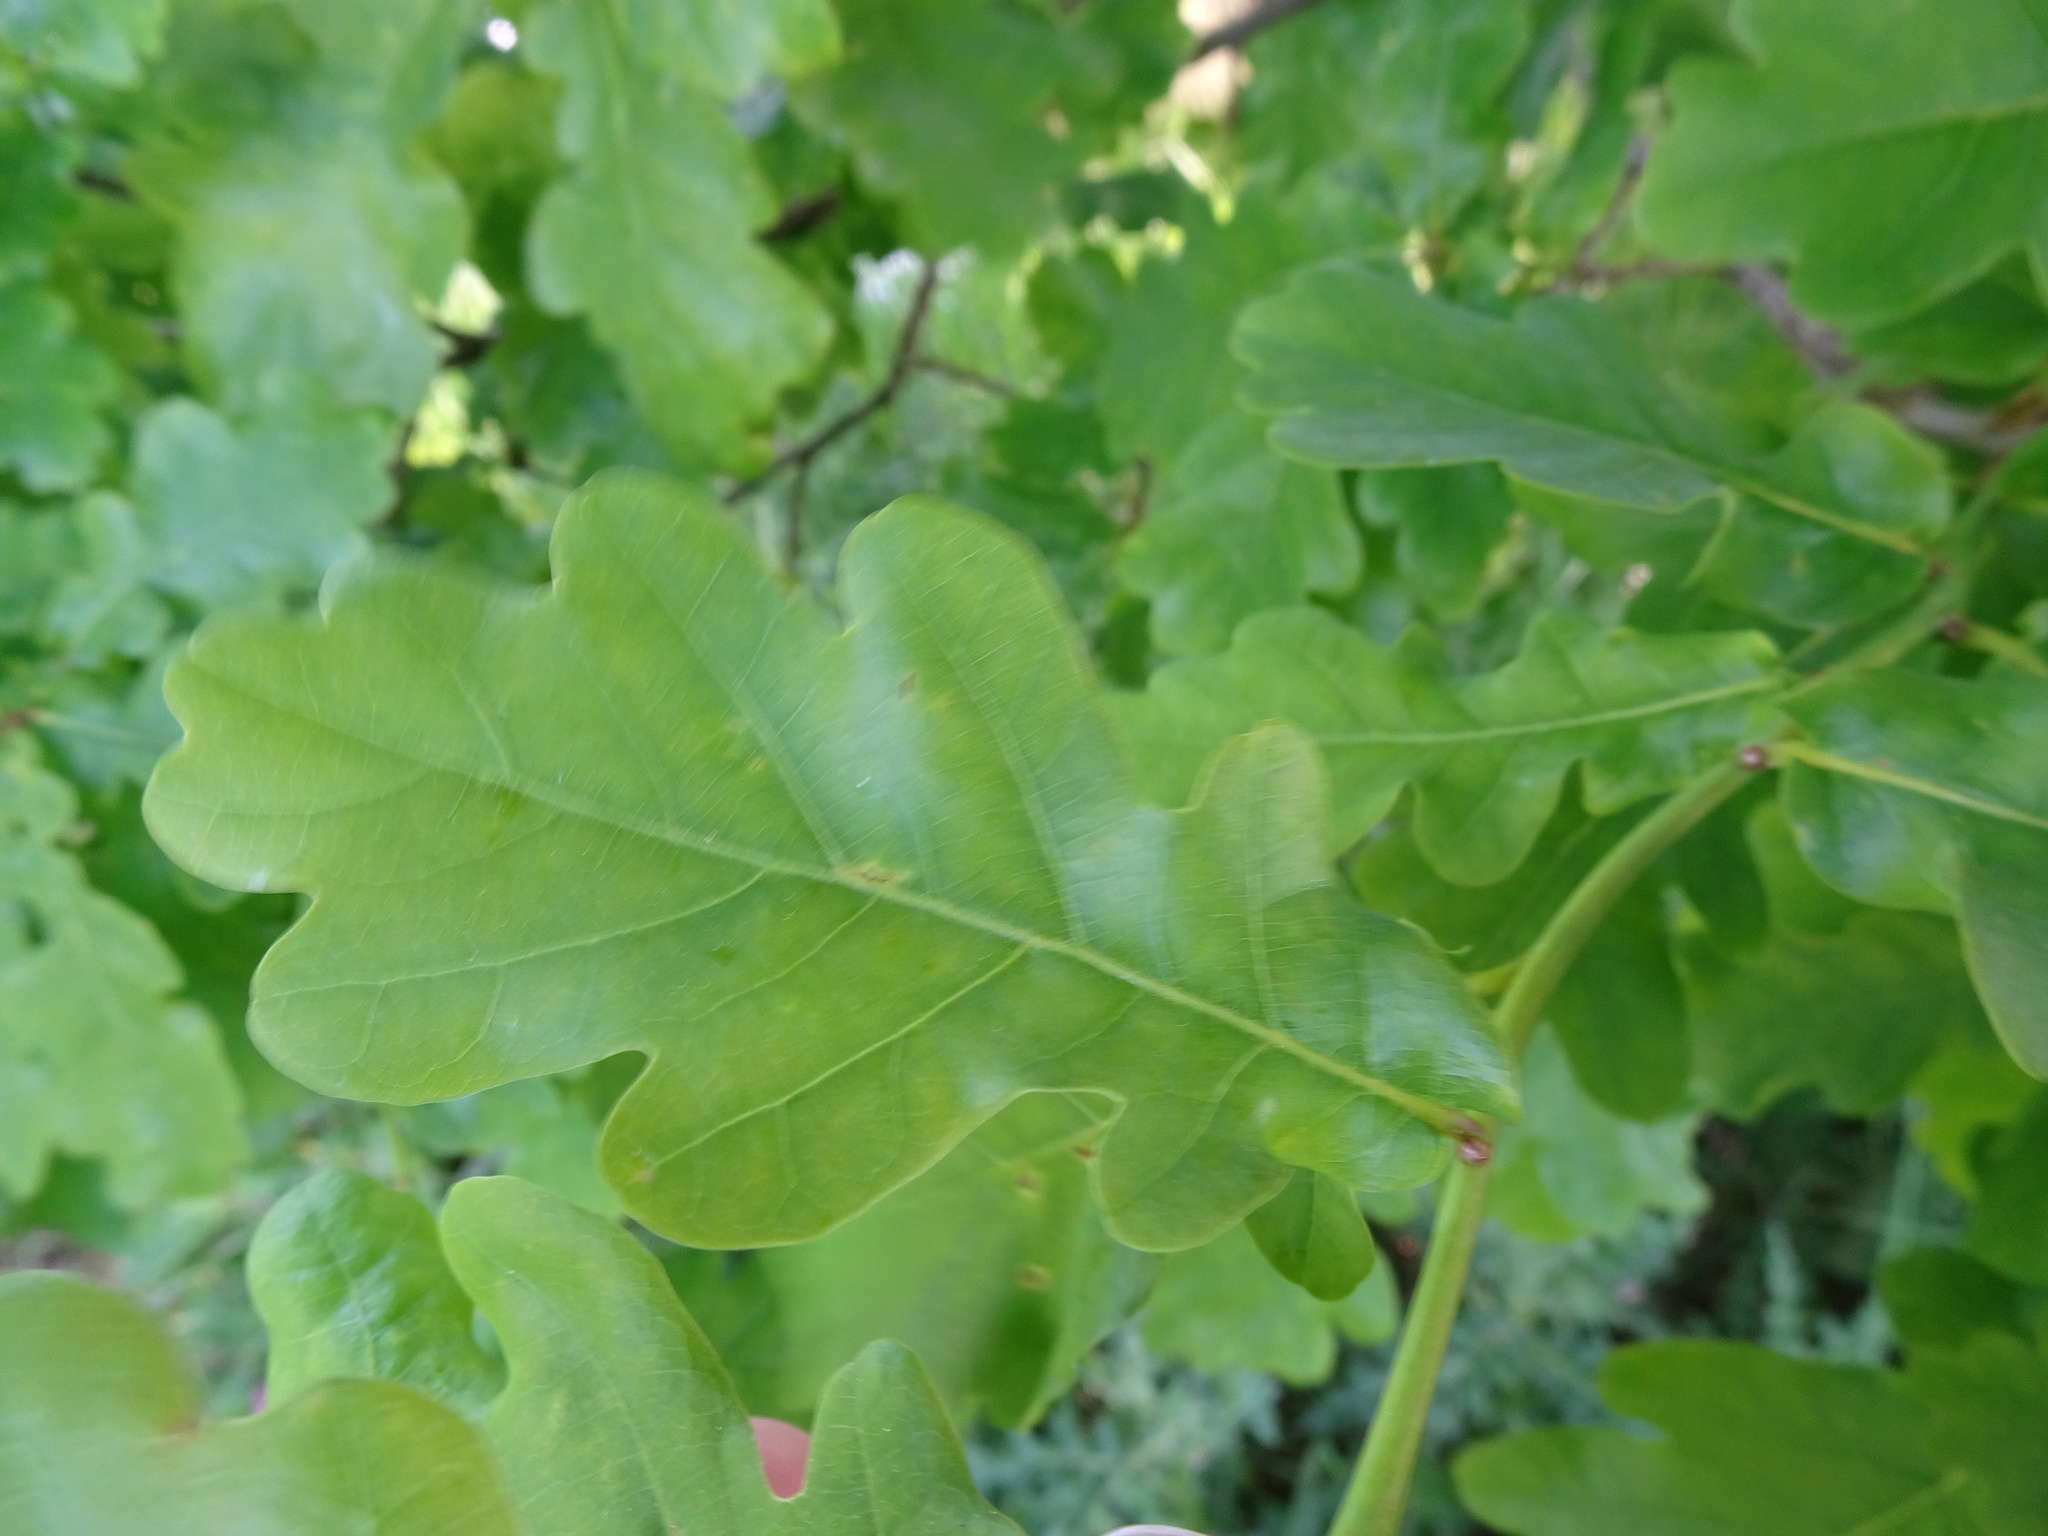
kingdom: Plantae
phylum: Tracheophyta
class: Magnoliopsida
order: Fagales
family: Fagaceae
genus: Quercus
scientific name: Quercus robur
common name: Pedunculate oak
